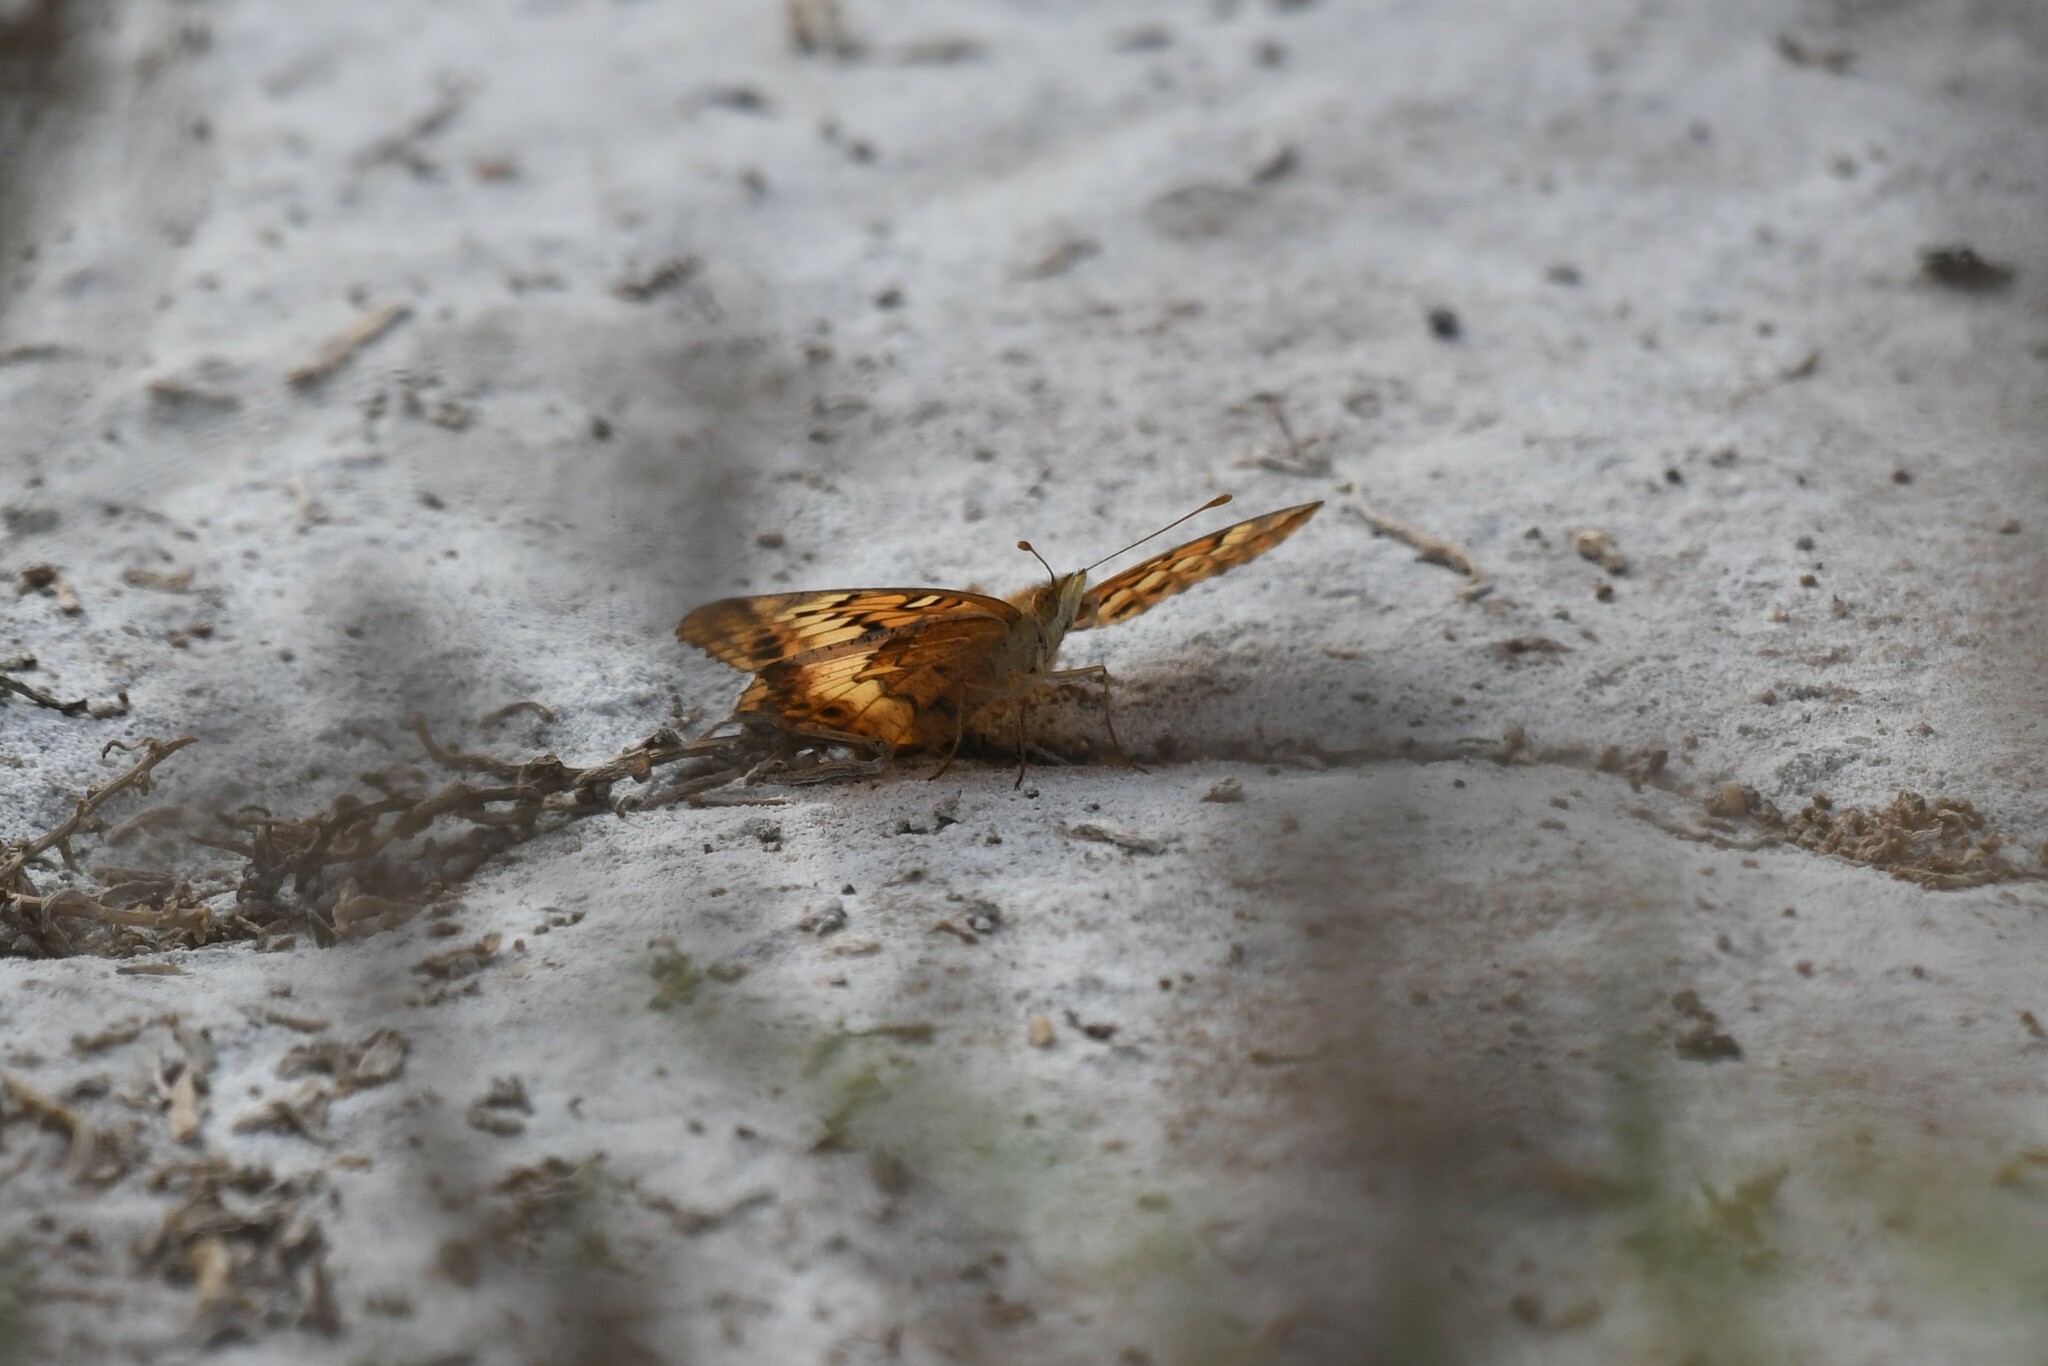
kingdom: Animalia
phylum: Arthropoda
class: Insecta
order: Lepidoptera
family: Nymphalidae
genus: Euptoieta
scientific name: Euptoieta hortensia
